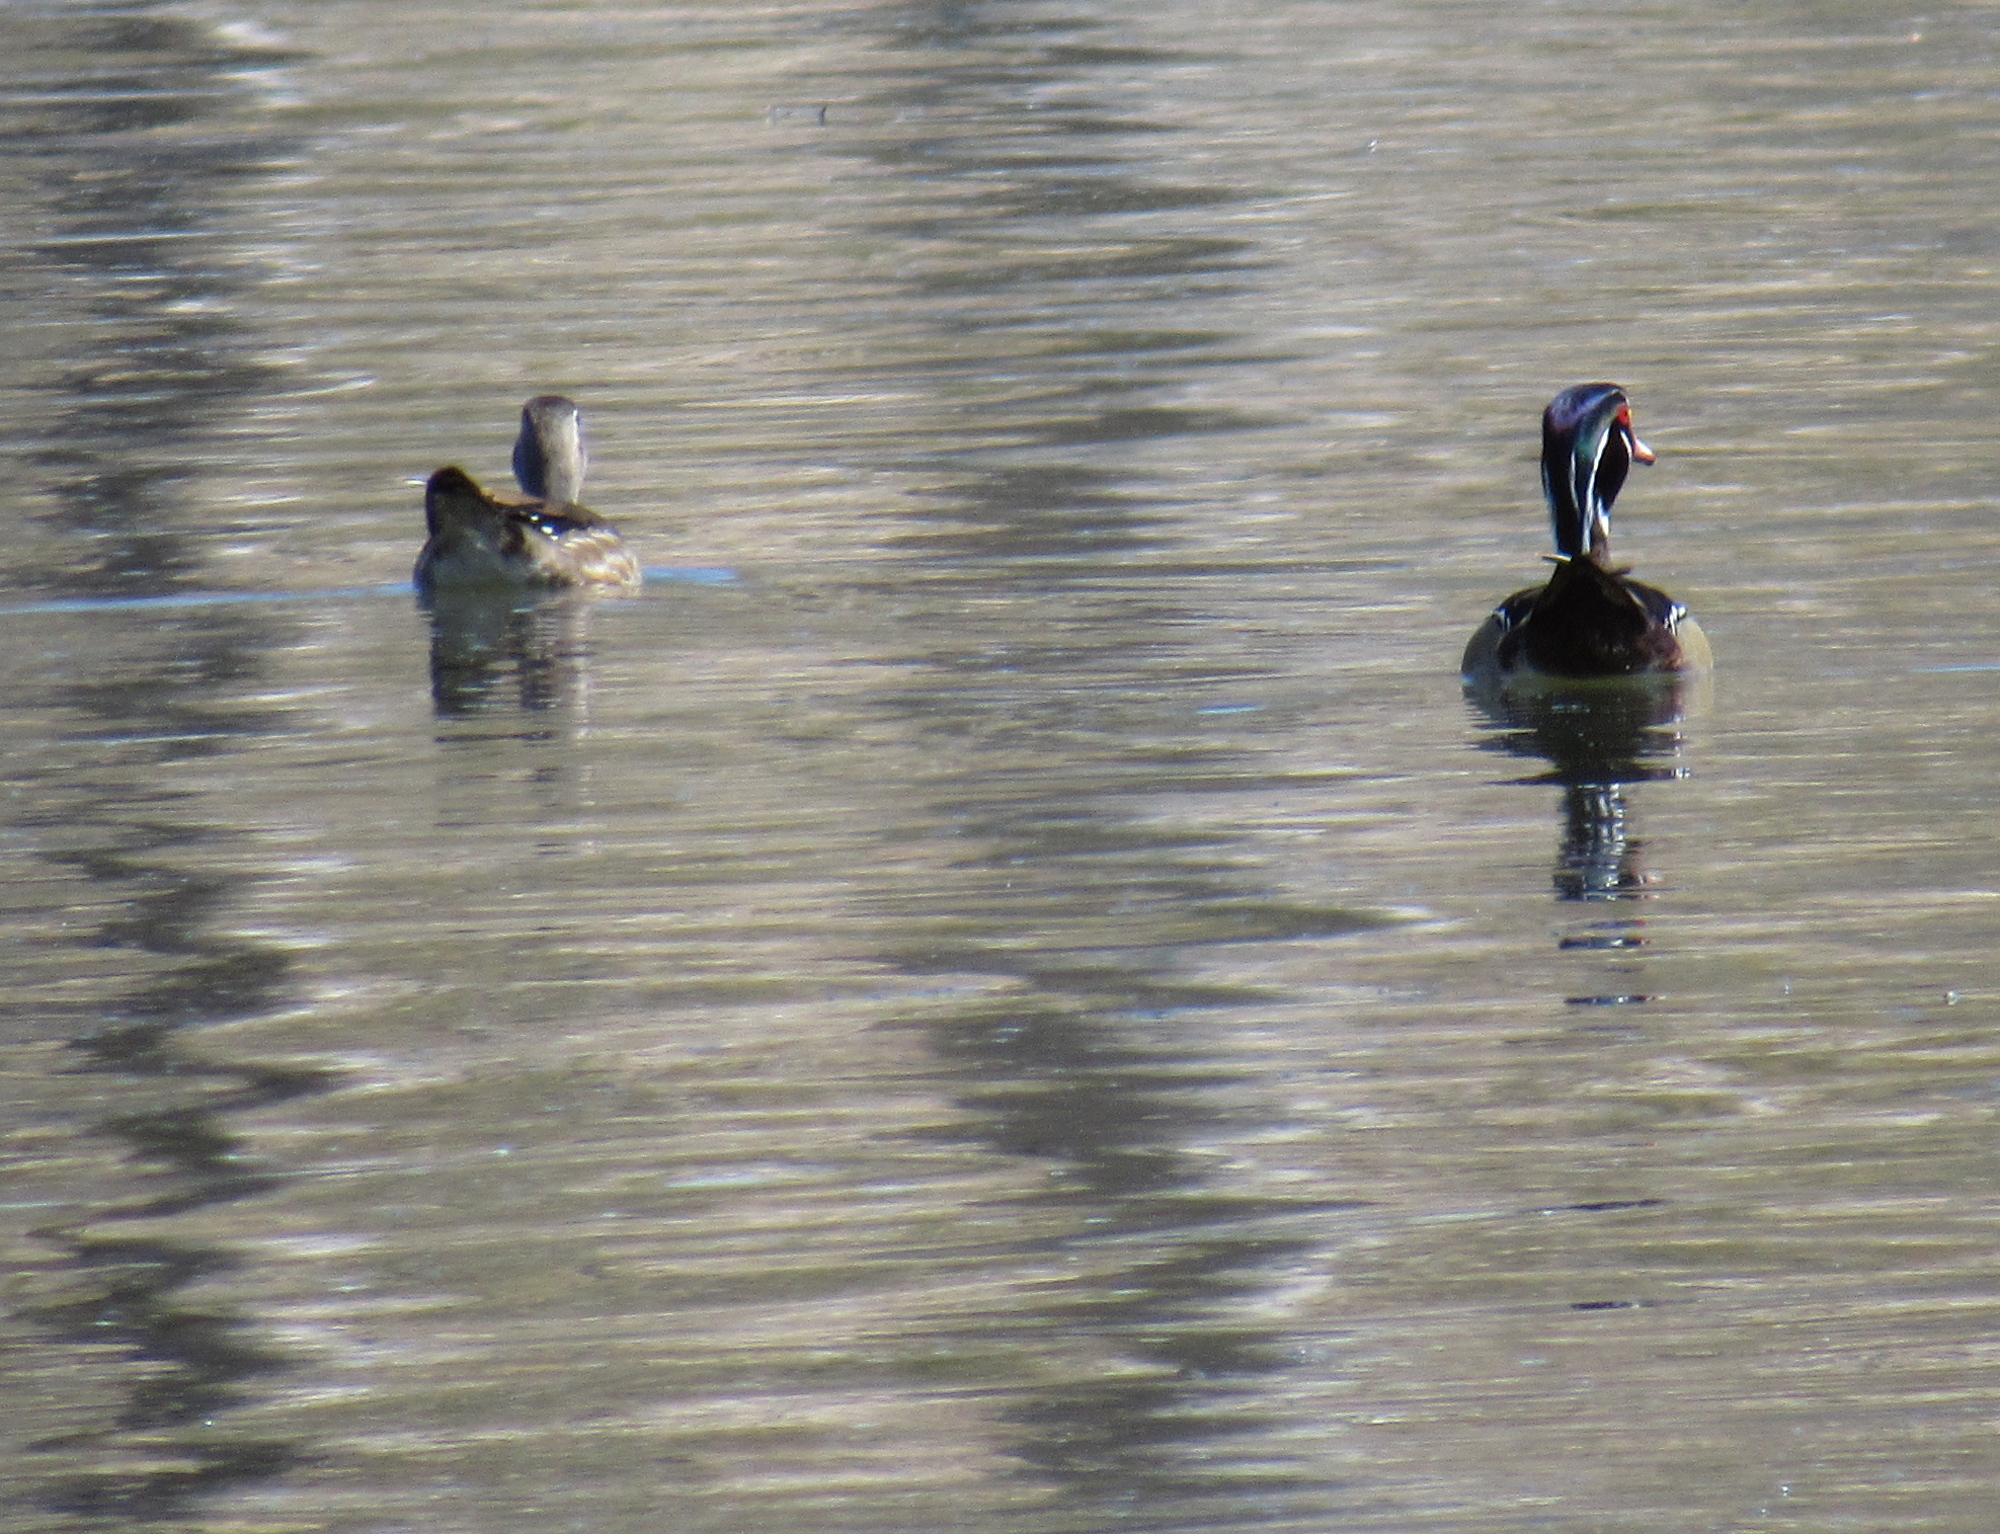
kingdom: Animalia
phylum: Chordata
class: Aves
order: Anseriformes
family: Anatidae
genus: Aix
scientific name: Aix sponsa
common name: Wood duck
